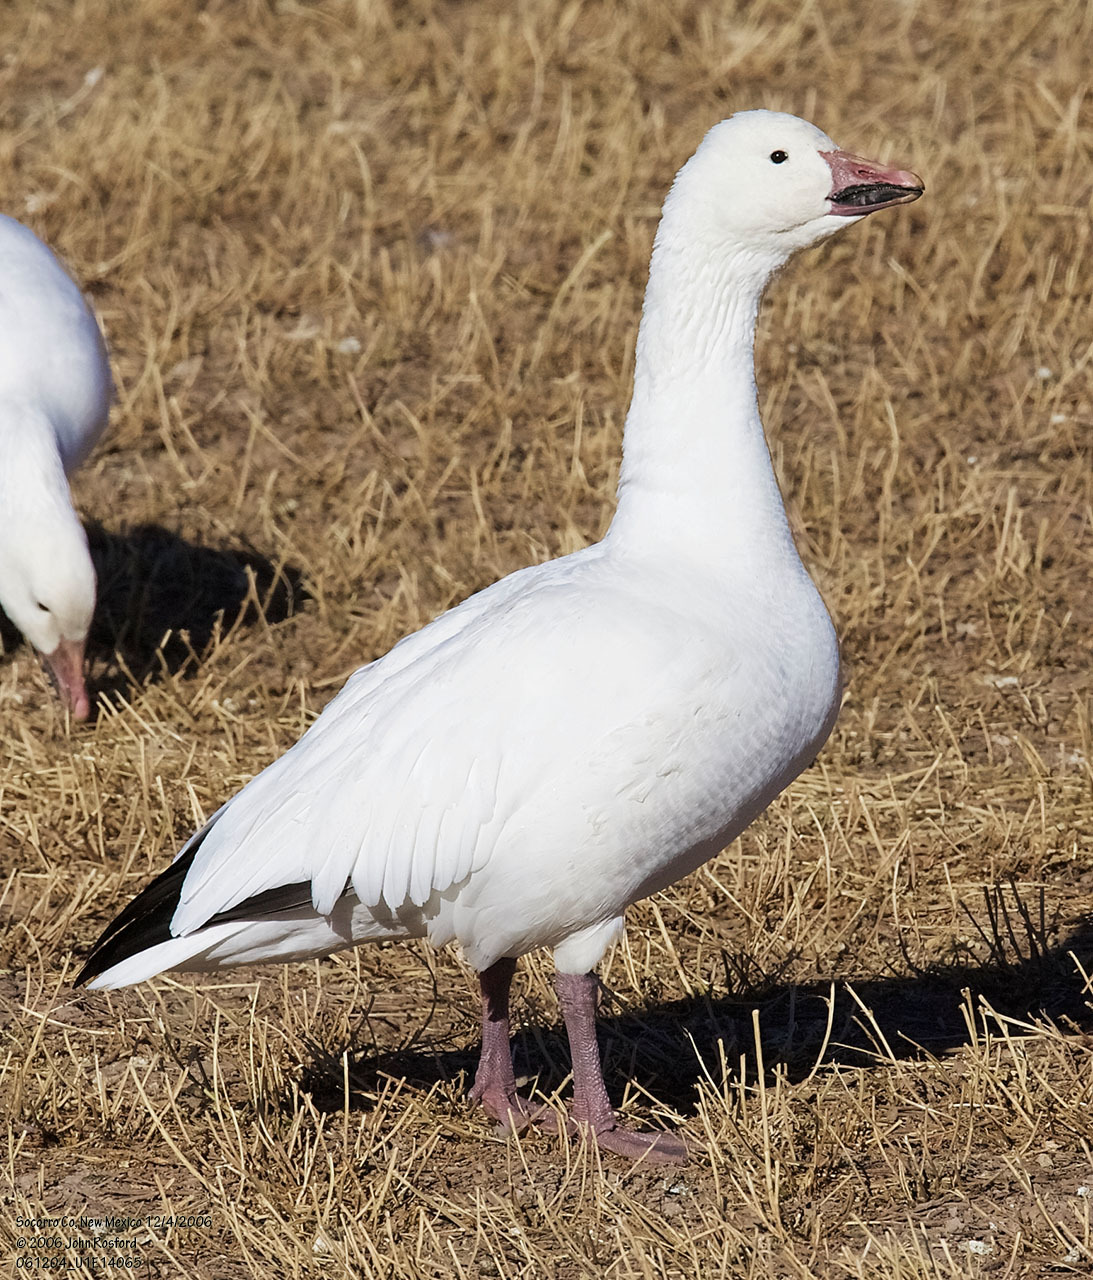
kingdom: Animalia
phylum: Chordata
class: Aves
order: Anseriformes
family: Anatidae
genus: Anser
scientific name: Anser caerulescens
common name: Snow goose
